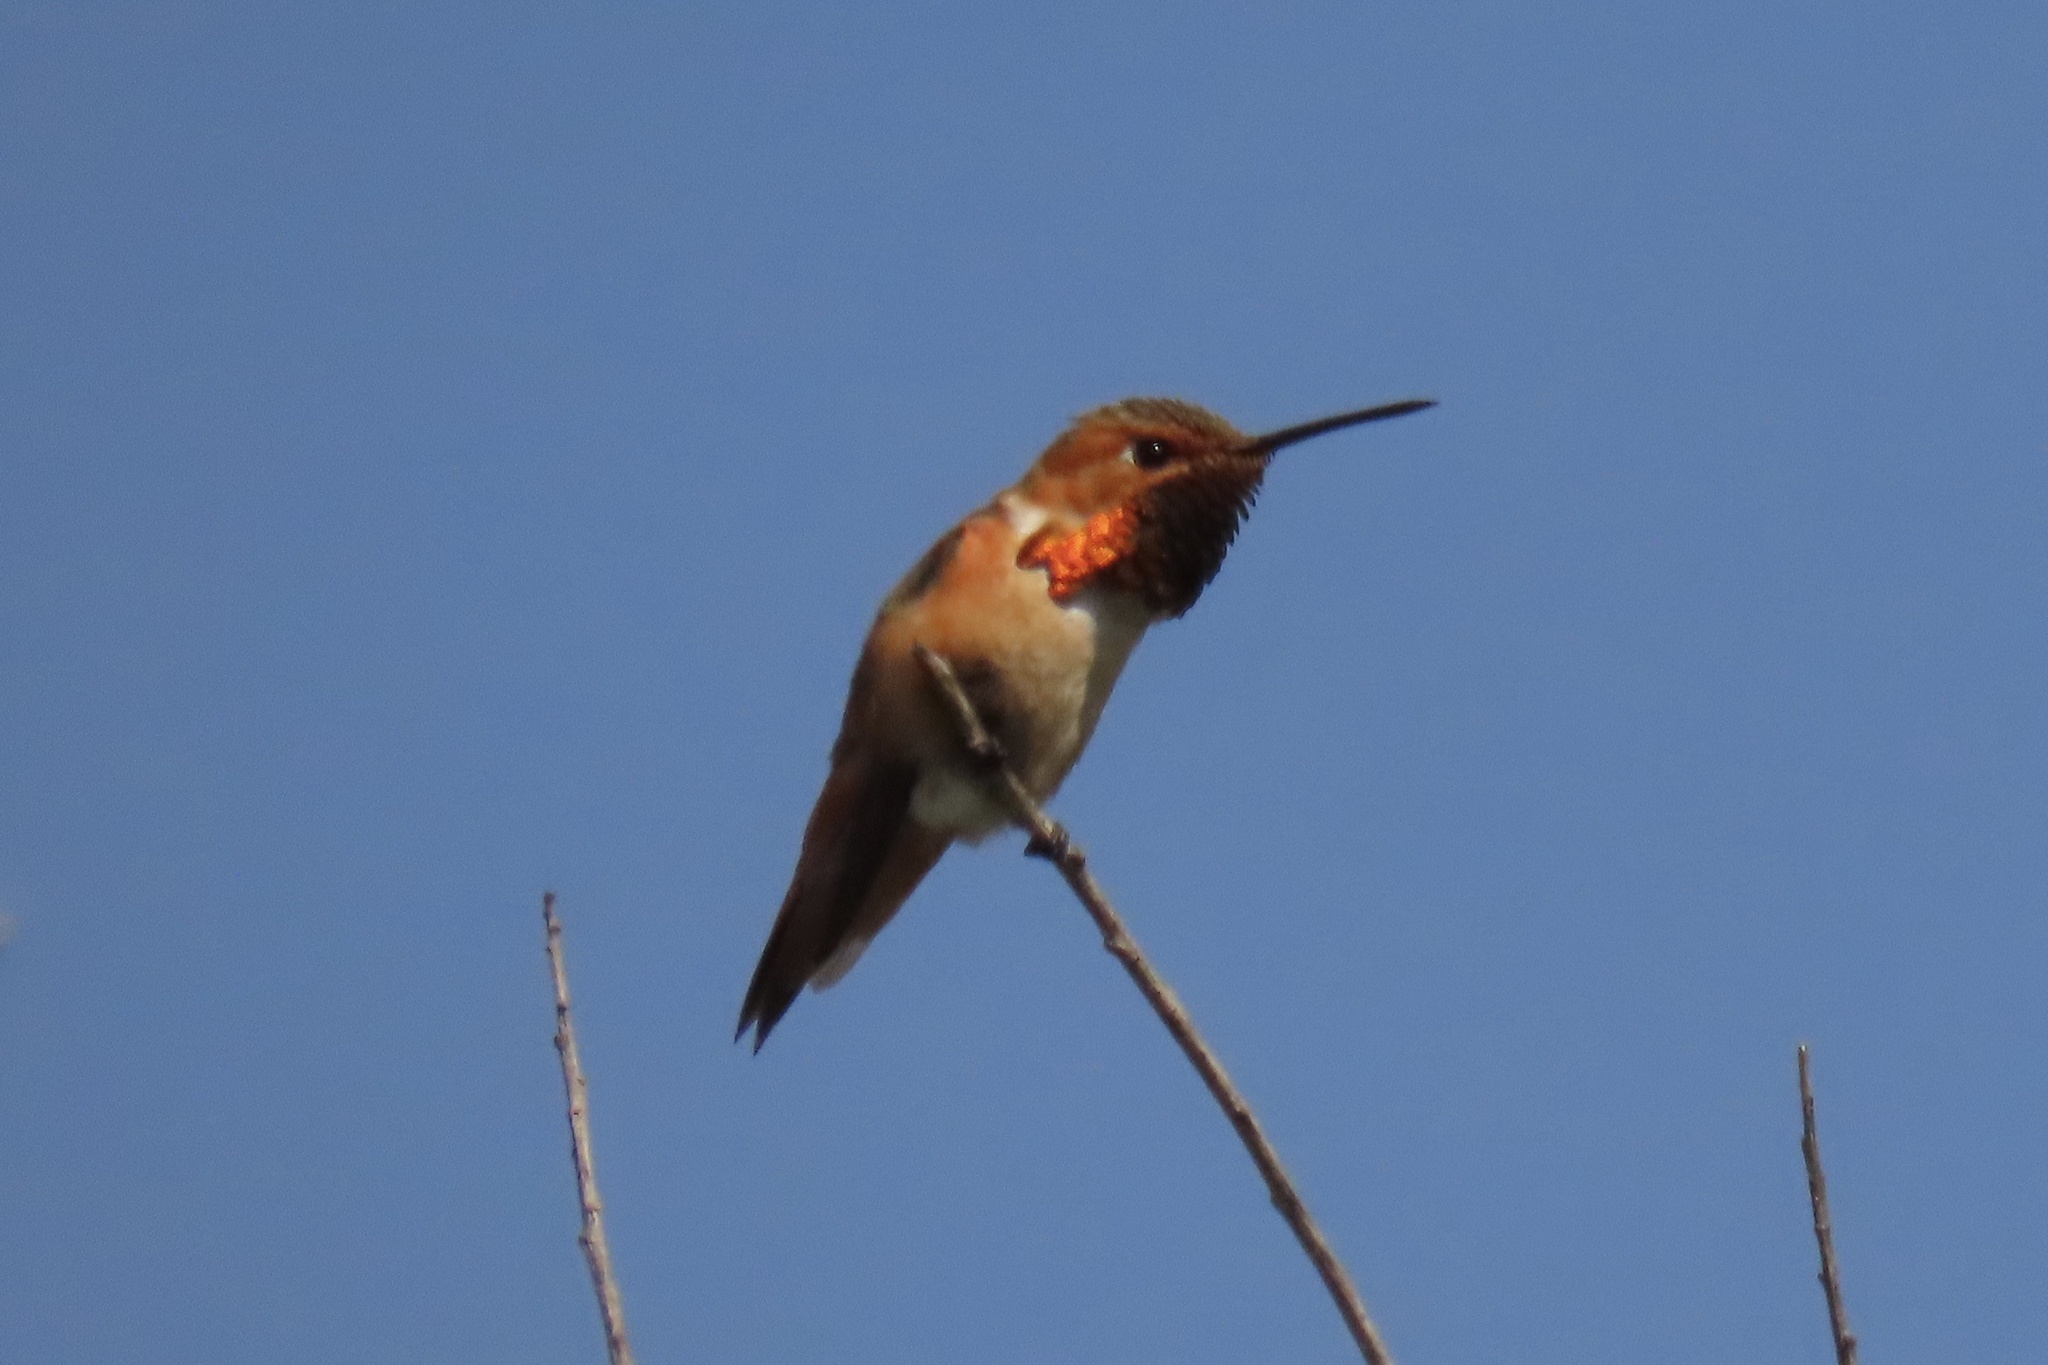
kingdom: Animalia
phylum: Chordata
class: Aves
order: Apodiformes
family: Trochilidae
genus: Selasphorus
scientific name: Selasphorus sasin
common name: Allen's hummingbird
